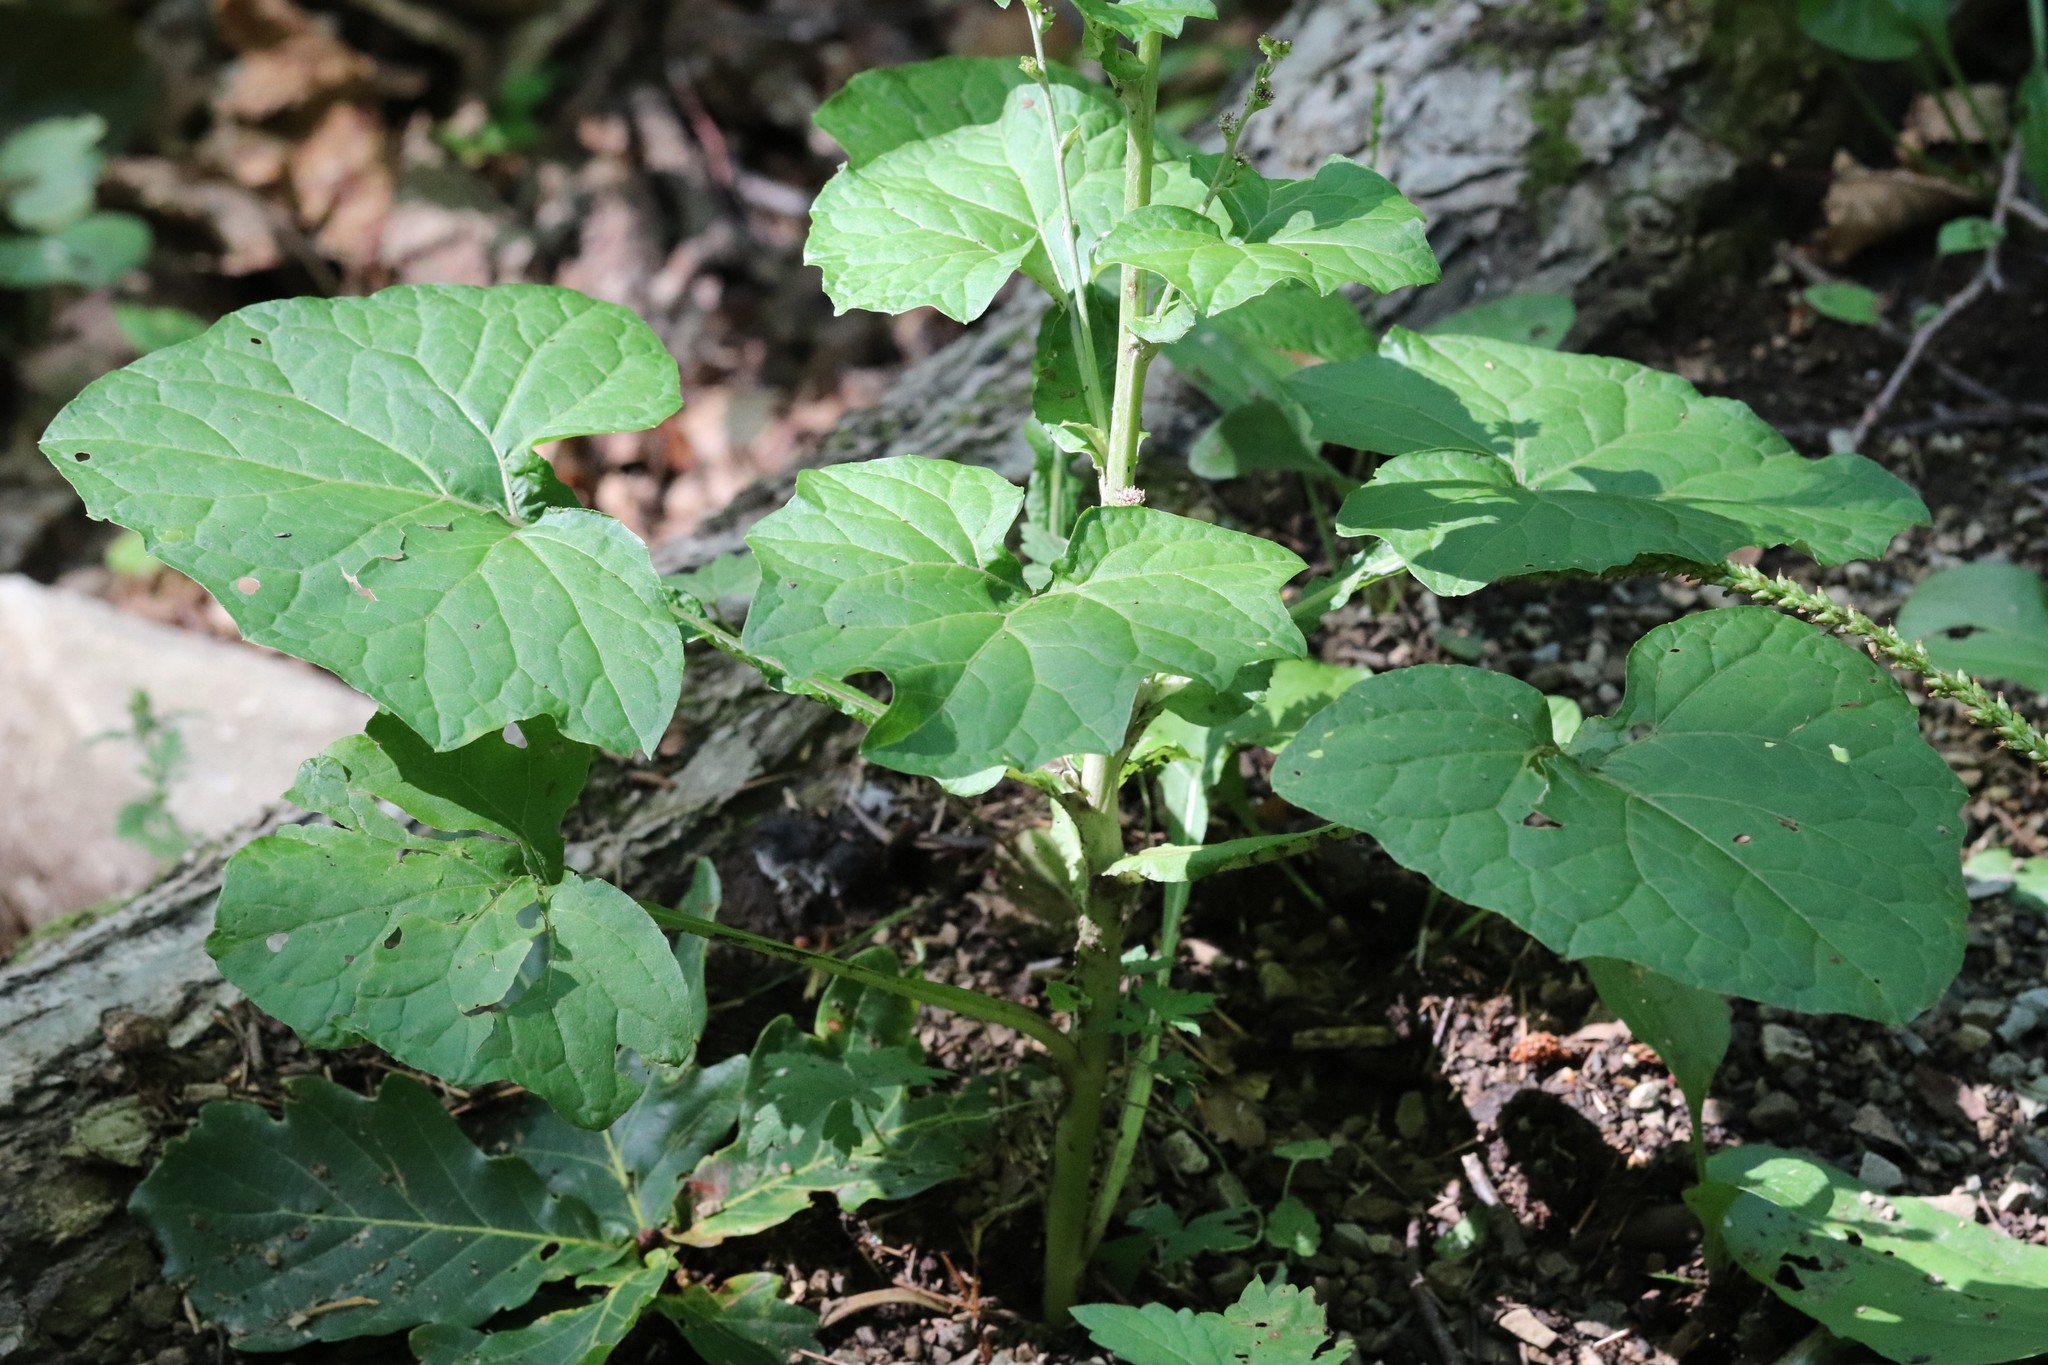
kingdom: Plantae
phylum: Tracheophyta
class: Magnoliopsida
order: Asterales
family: Asteraceae
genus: Adenocaulon
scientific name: Adenocaulon himalaicum
